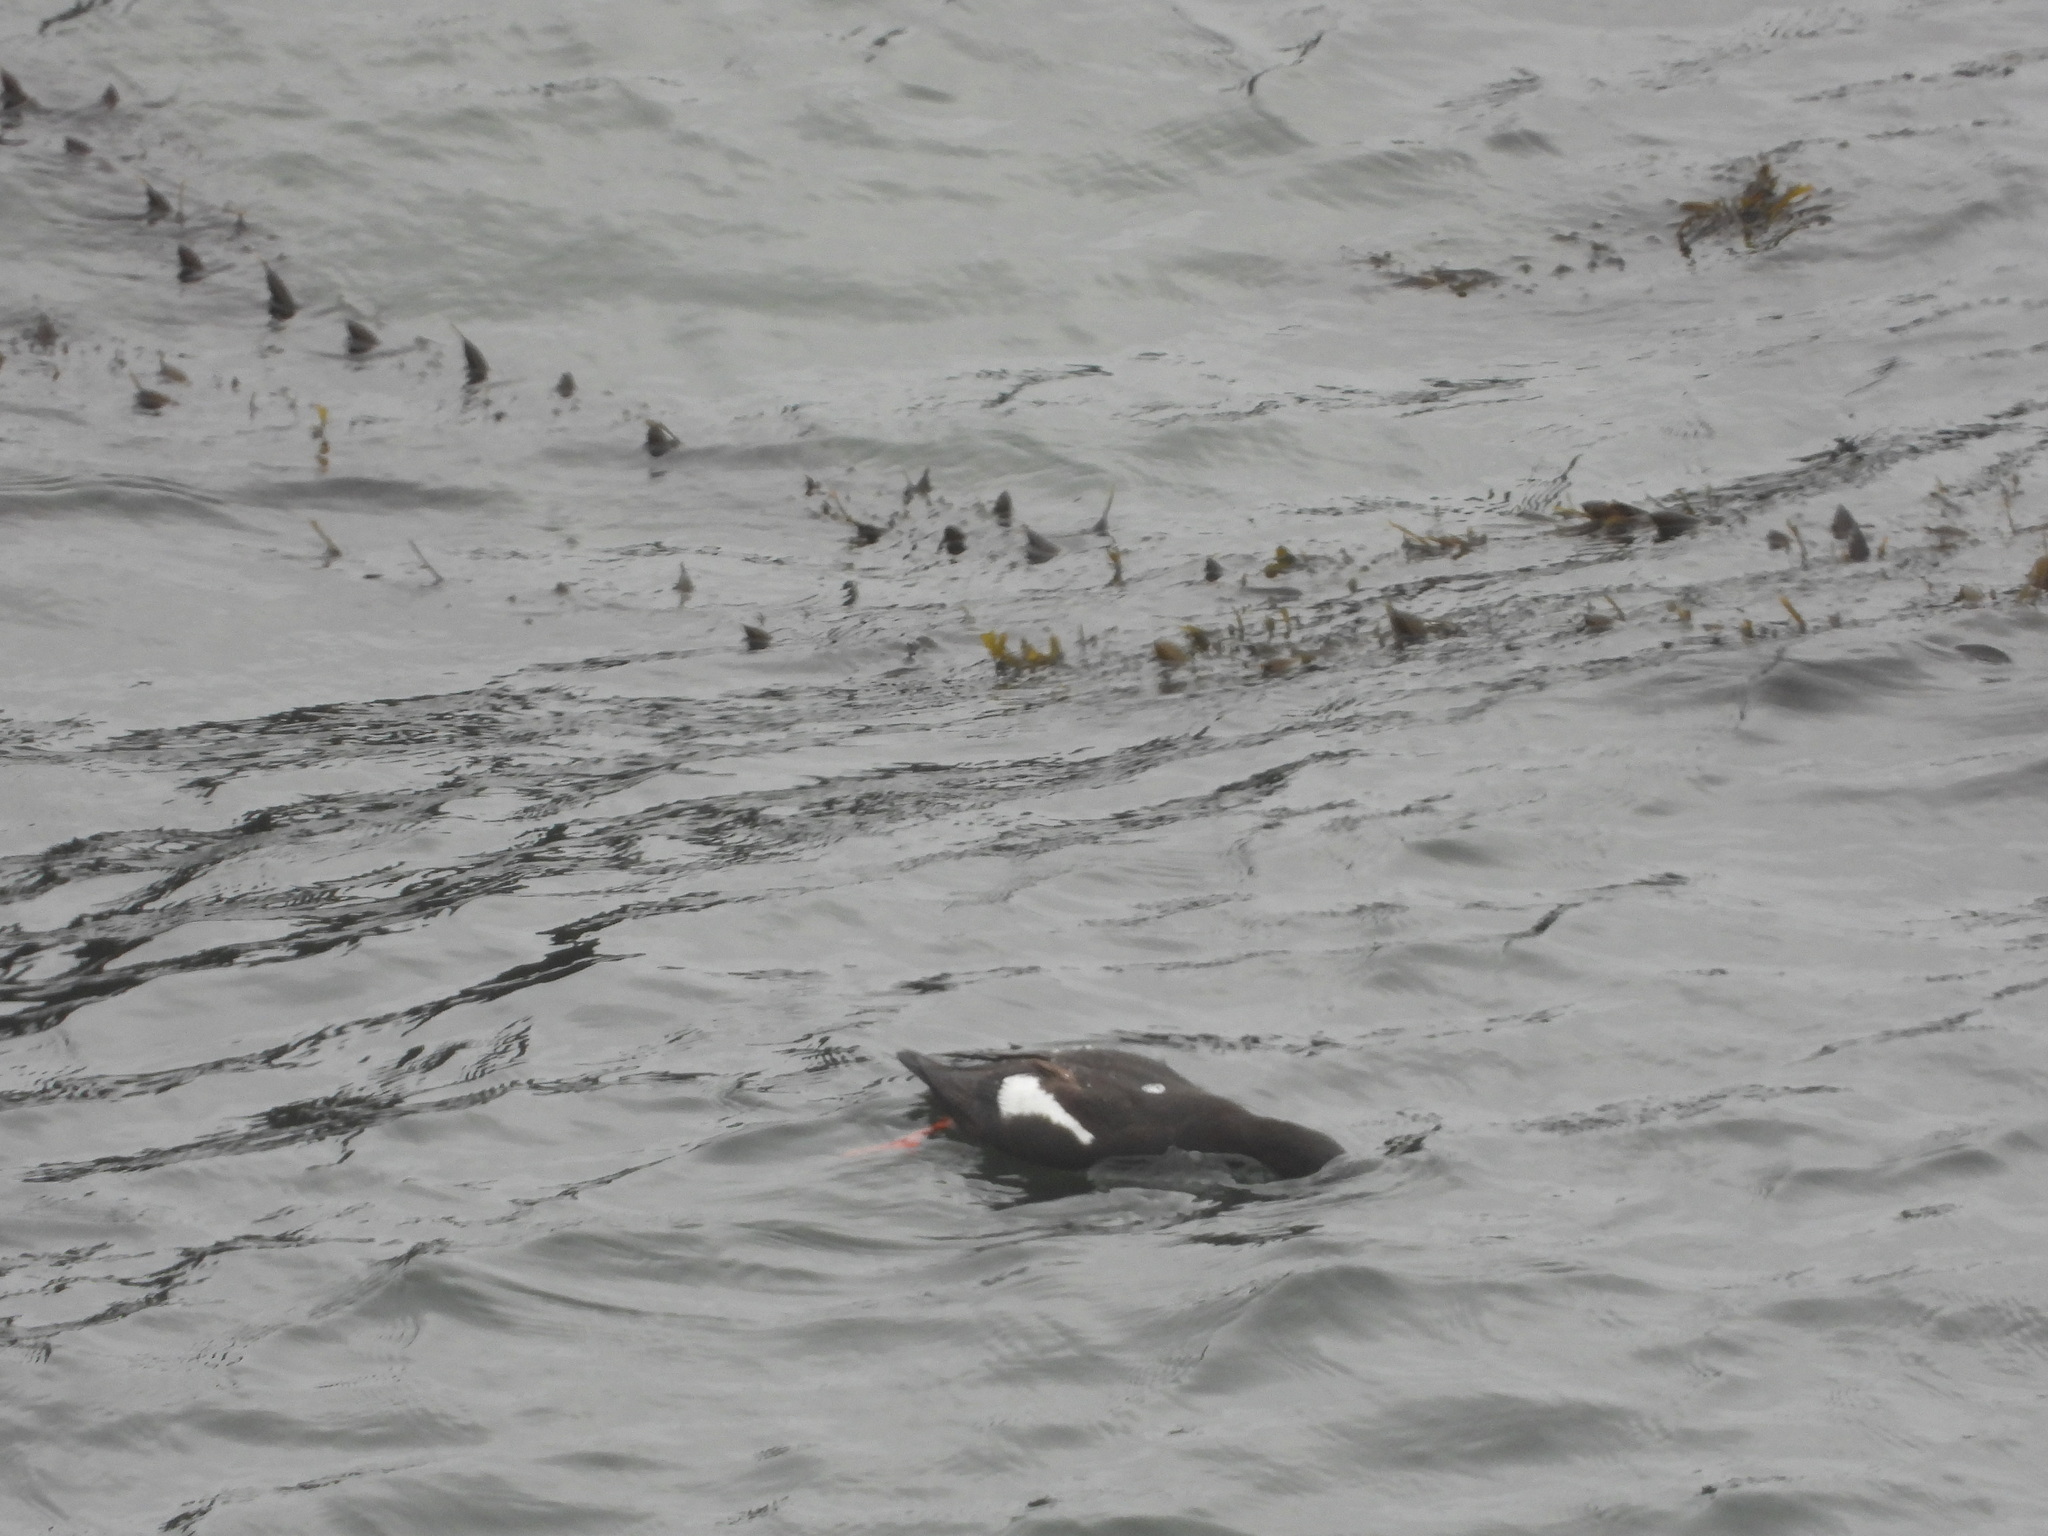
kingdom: Animalia
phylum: Chordata
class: Aves
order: Charadriiformes
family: Alcidae
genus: Cepphus
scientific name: Cepphus columba
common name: Pigeon guillemot
